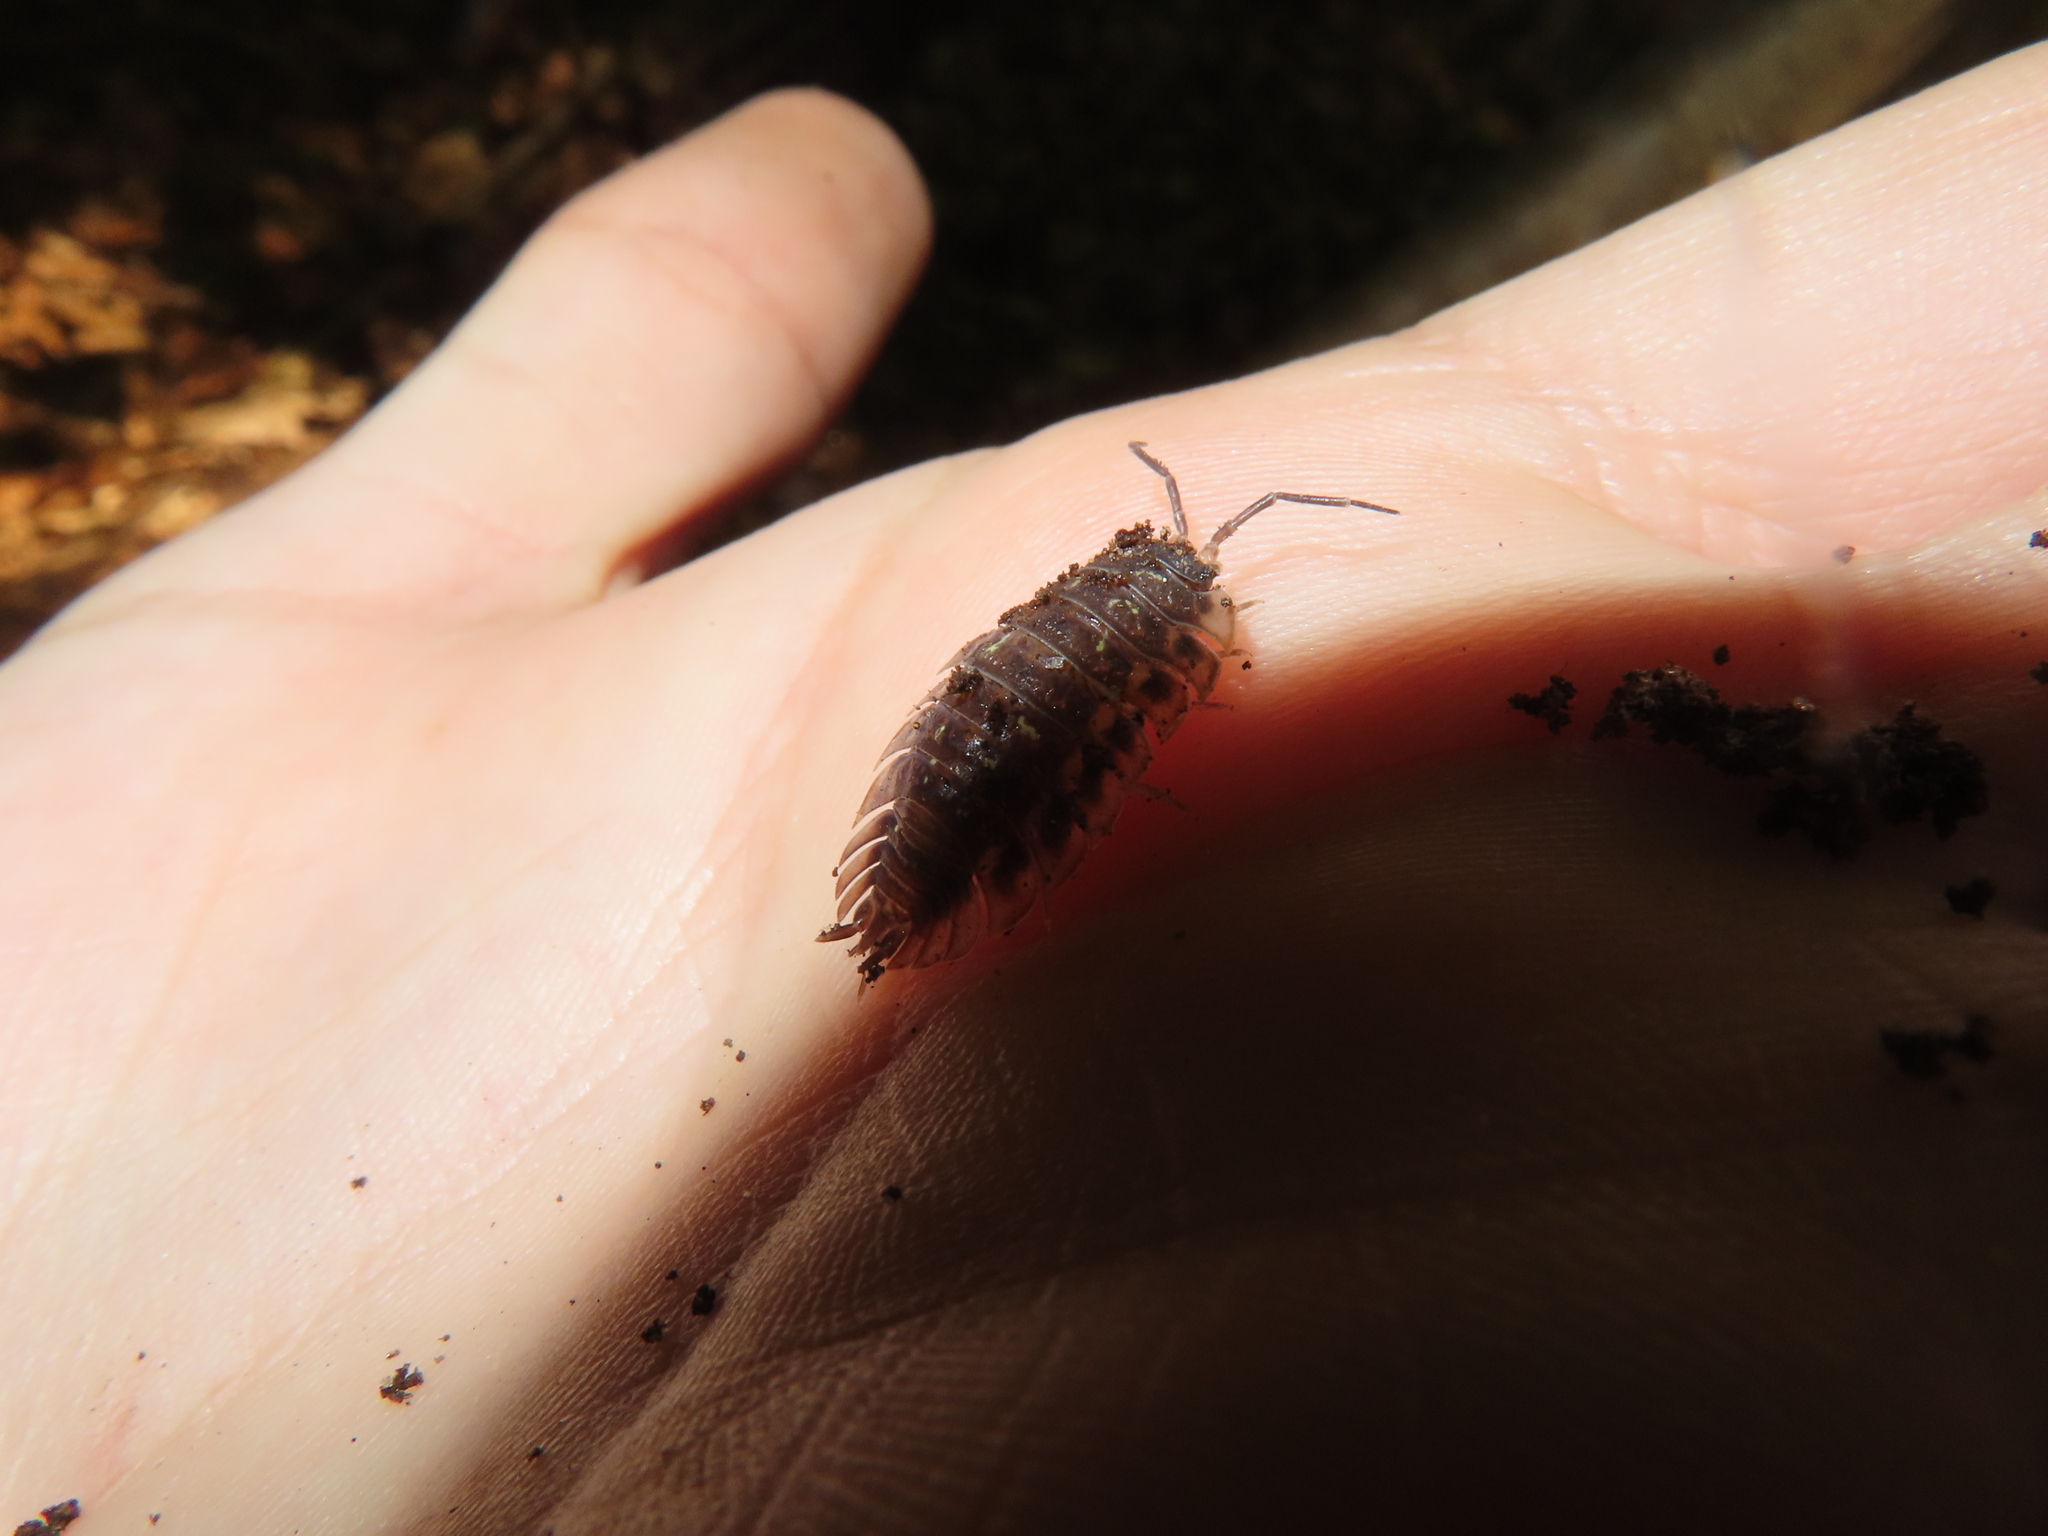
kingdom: Animalia
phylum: Arthropoda
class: Malacostraca
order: Isopoda
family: Oniscidae
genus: Oniscus
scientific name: Oniscus asellus
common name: Common shiny woodlouse
